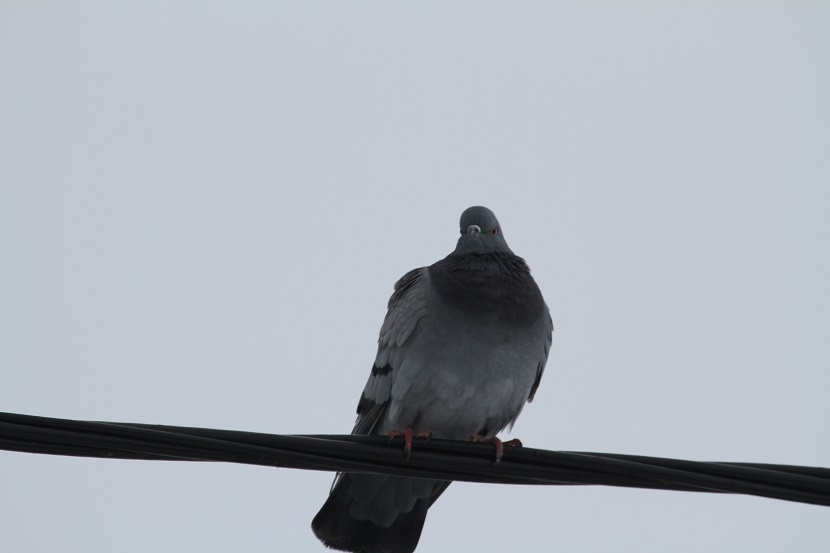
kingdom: Animalia
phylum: Chordata
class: Aves
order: Columbiformes
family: Columbidae
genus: Columba
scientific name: Columba livia
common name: Rock pigeon
